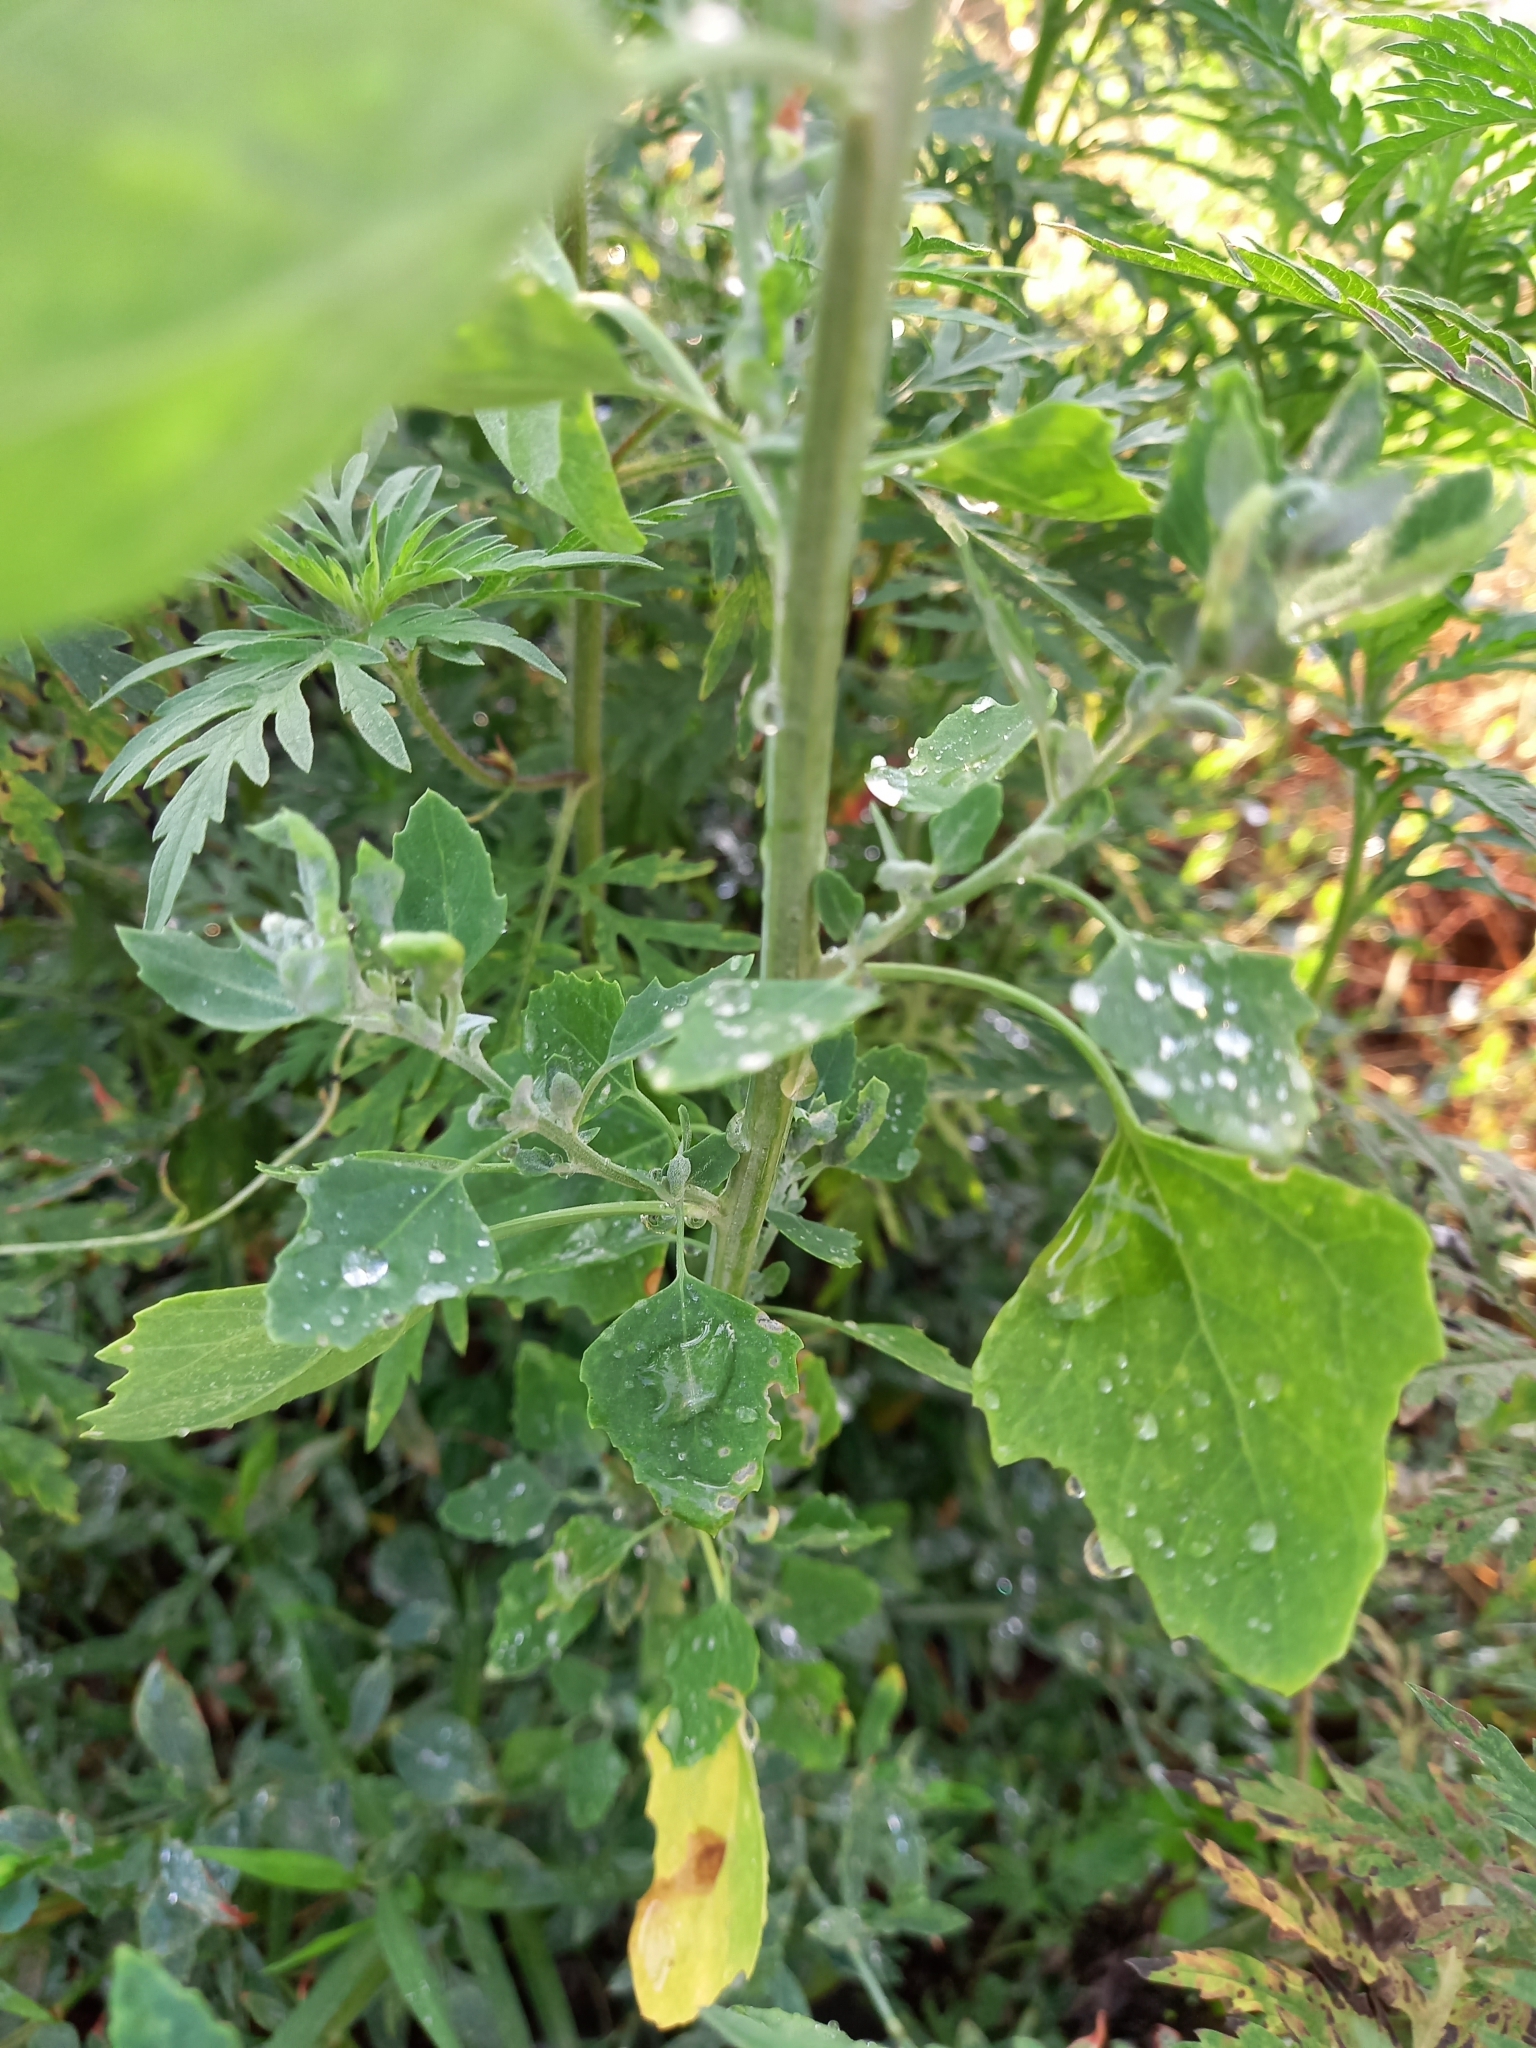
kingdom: Plantae
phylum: Tracheophyta
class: Magnoliopsida
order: Caryophyllales
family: Amaranthaceae
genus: Chenopodium
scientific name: Chenopodium album
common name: Fat-hen
